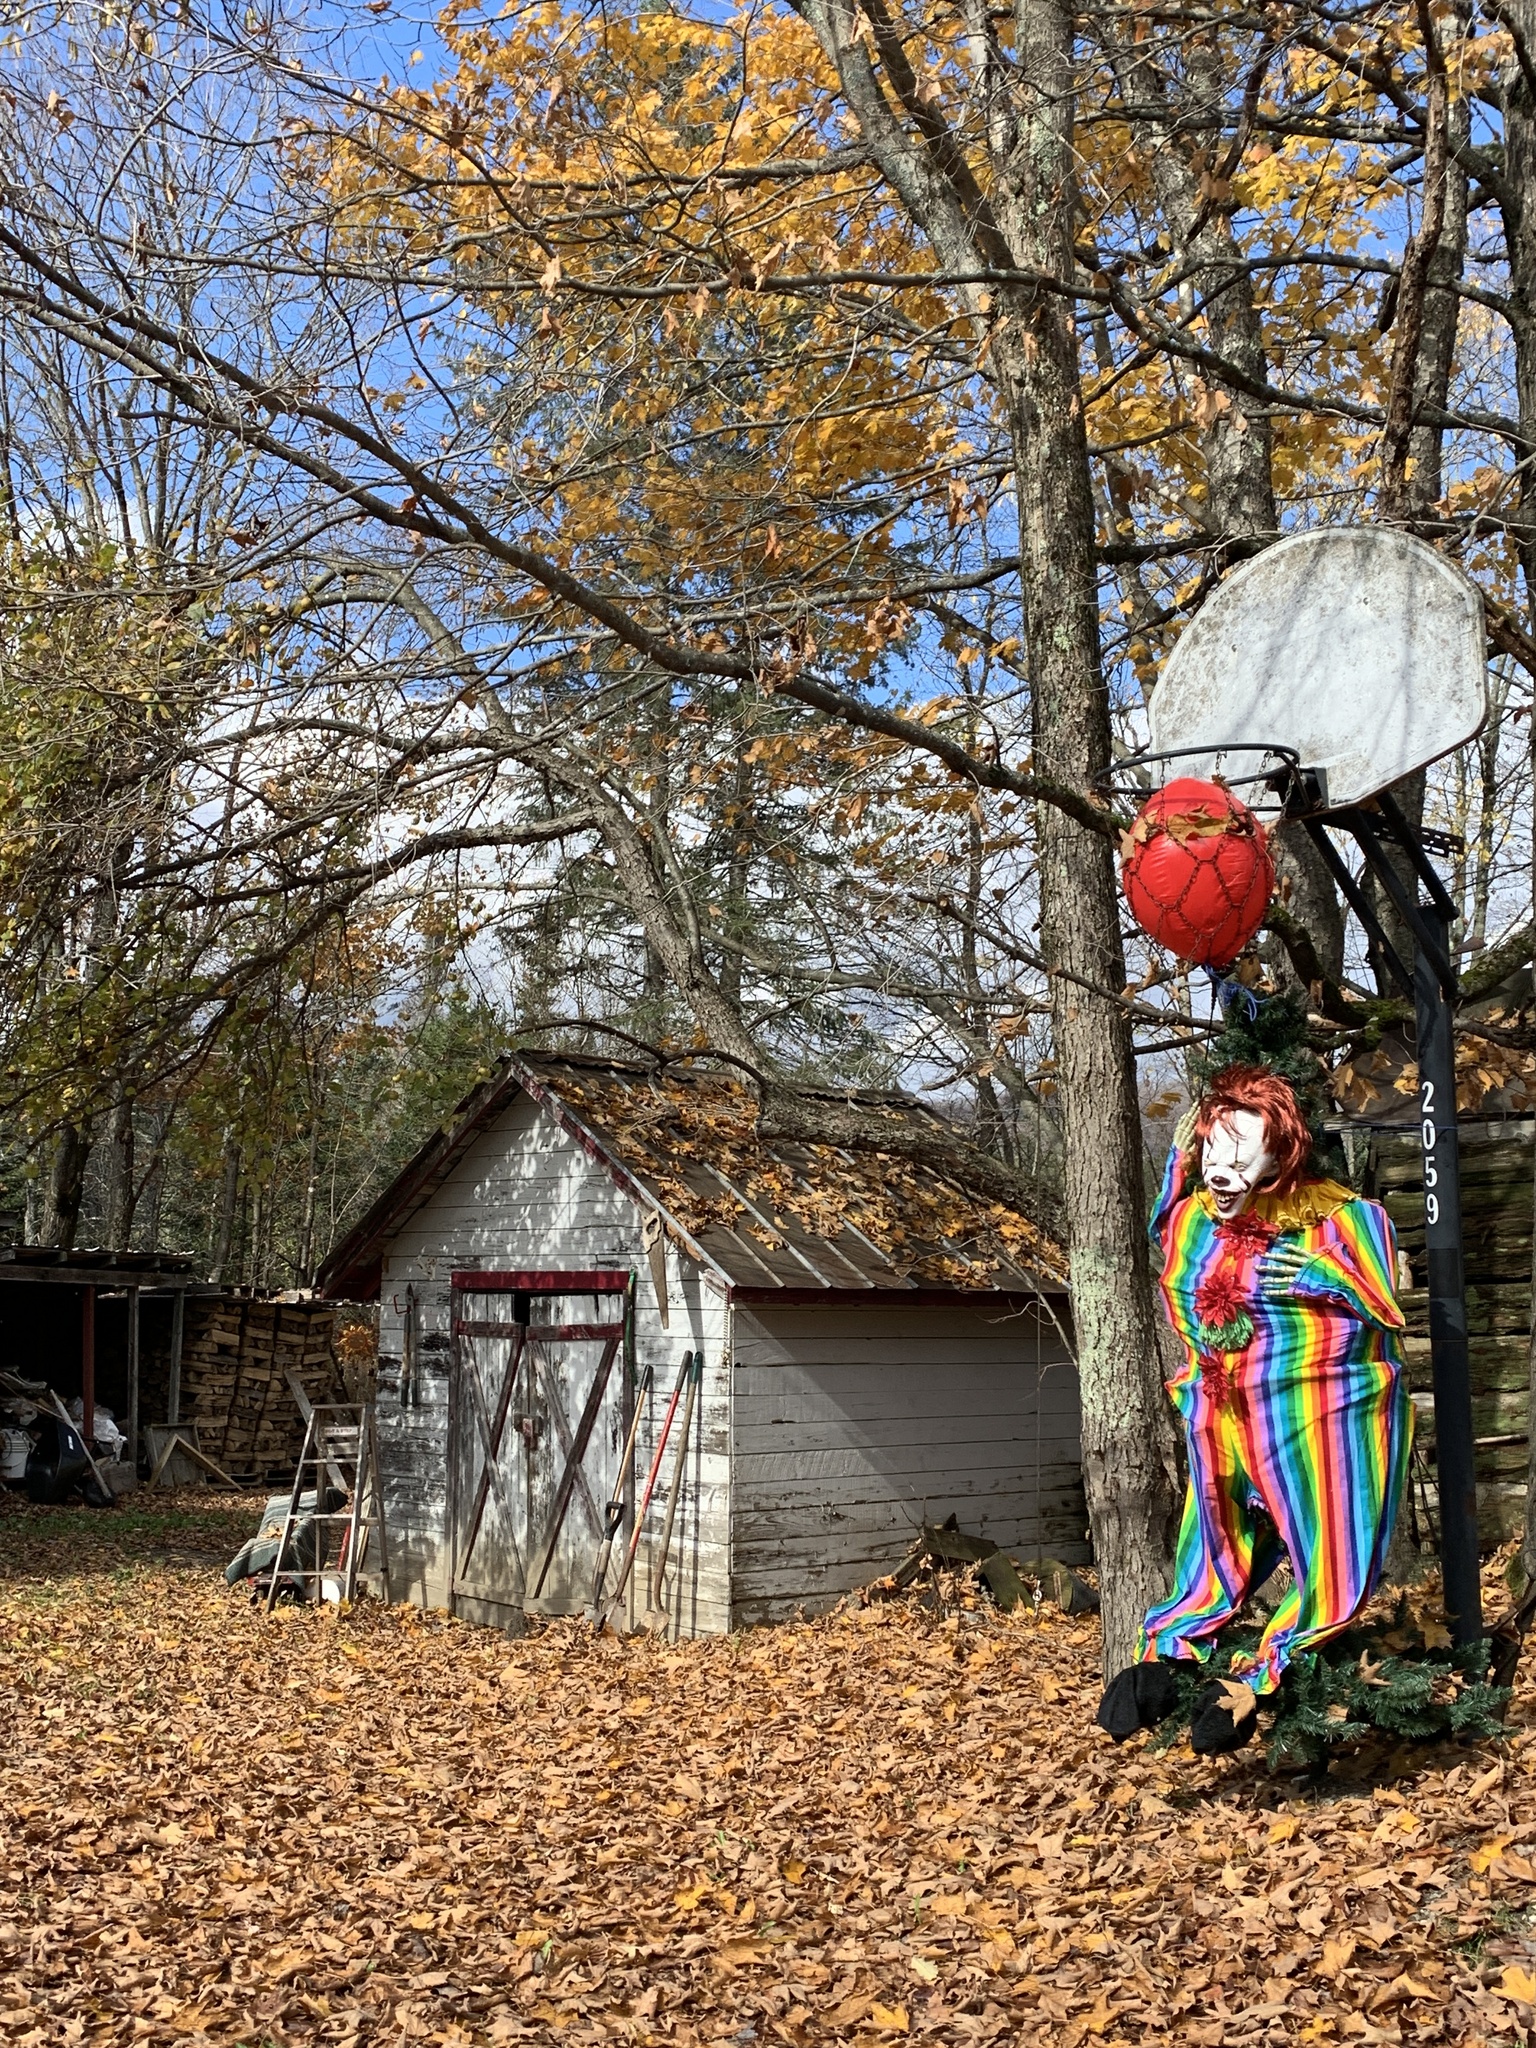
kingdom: Plantae
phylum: Tracheophyta
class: Magnoliopsida
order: Sapindales
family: Sapindaceae
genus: Acer
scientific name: Acer saccharum
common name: Sugar maple
